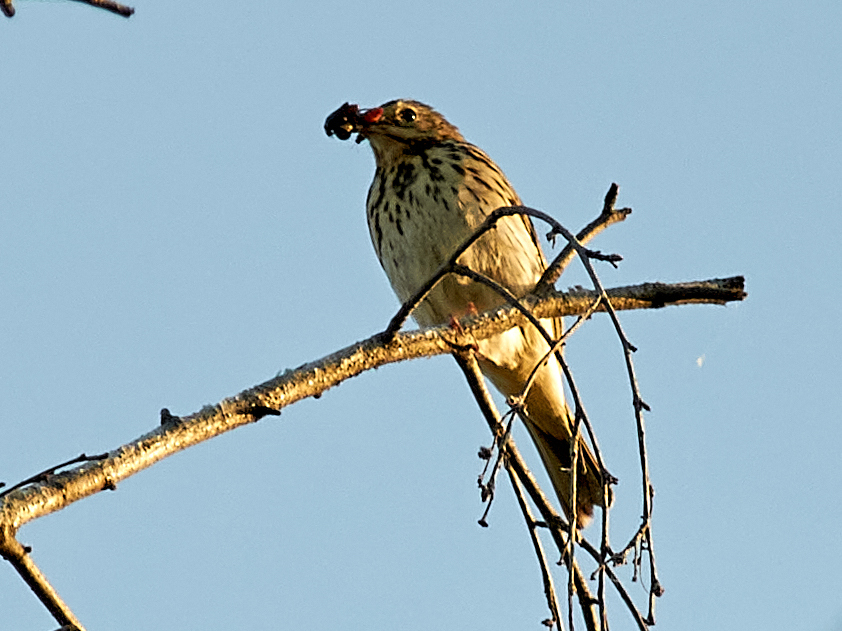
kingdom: Animalia
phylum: Chordata
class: Aves
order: Passeriformes
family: Motacillidae
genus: Anthus
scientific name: Anthus trivialis
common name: Tree pipit
